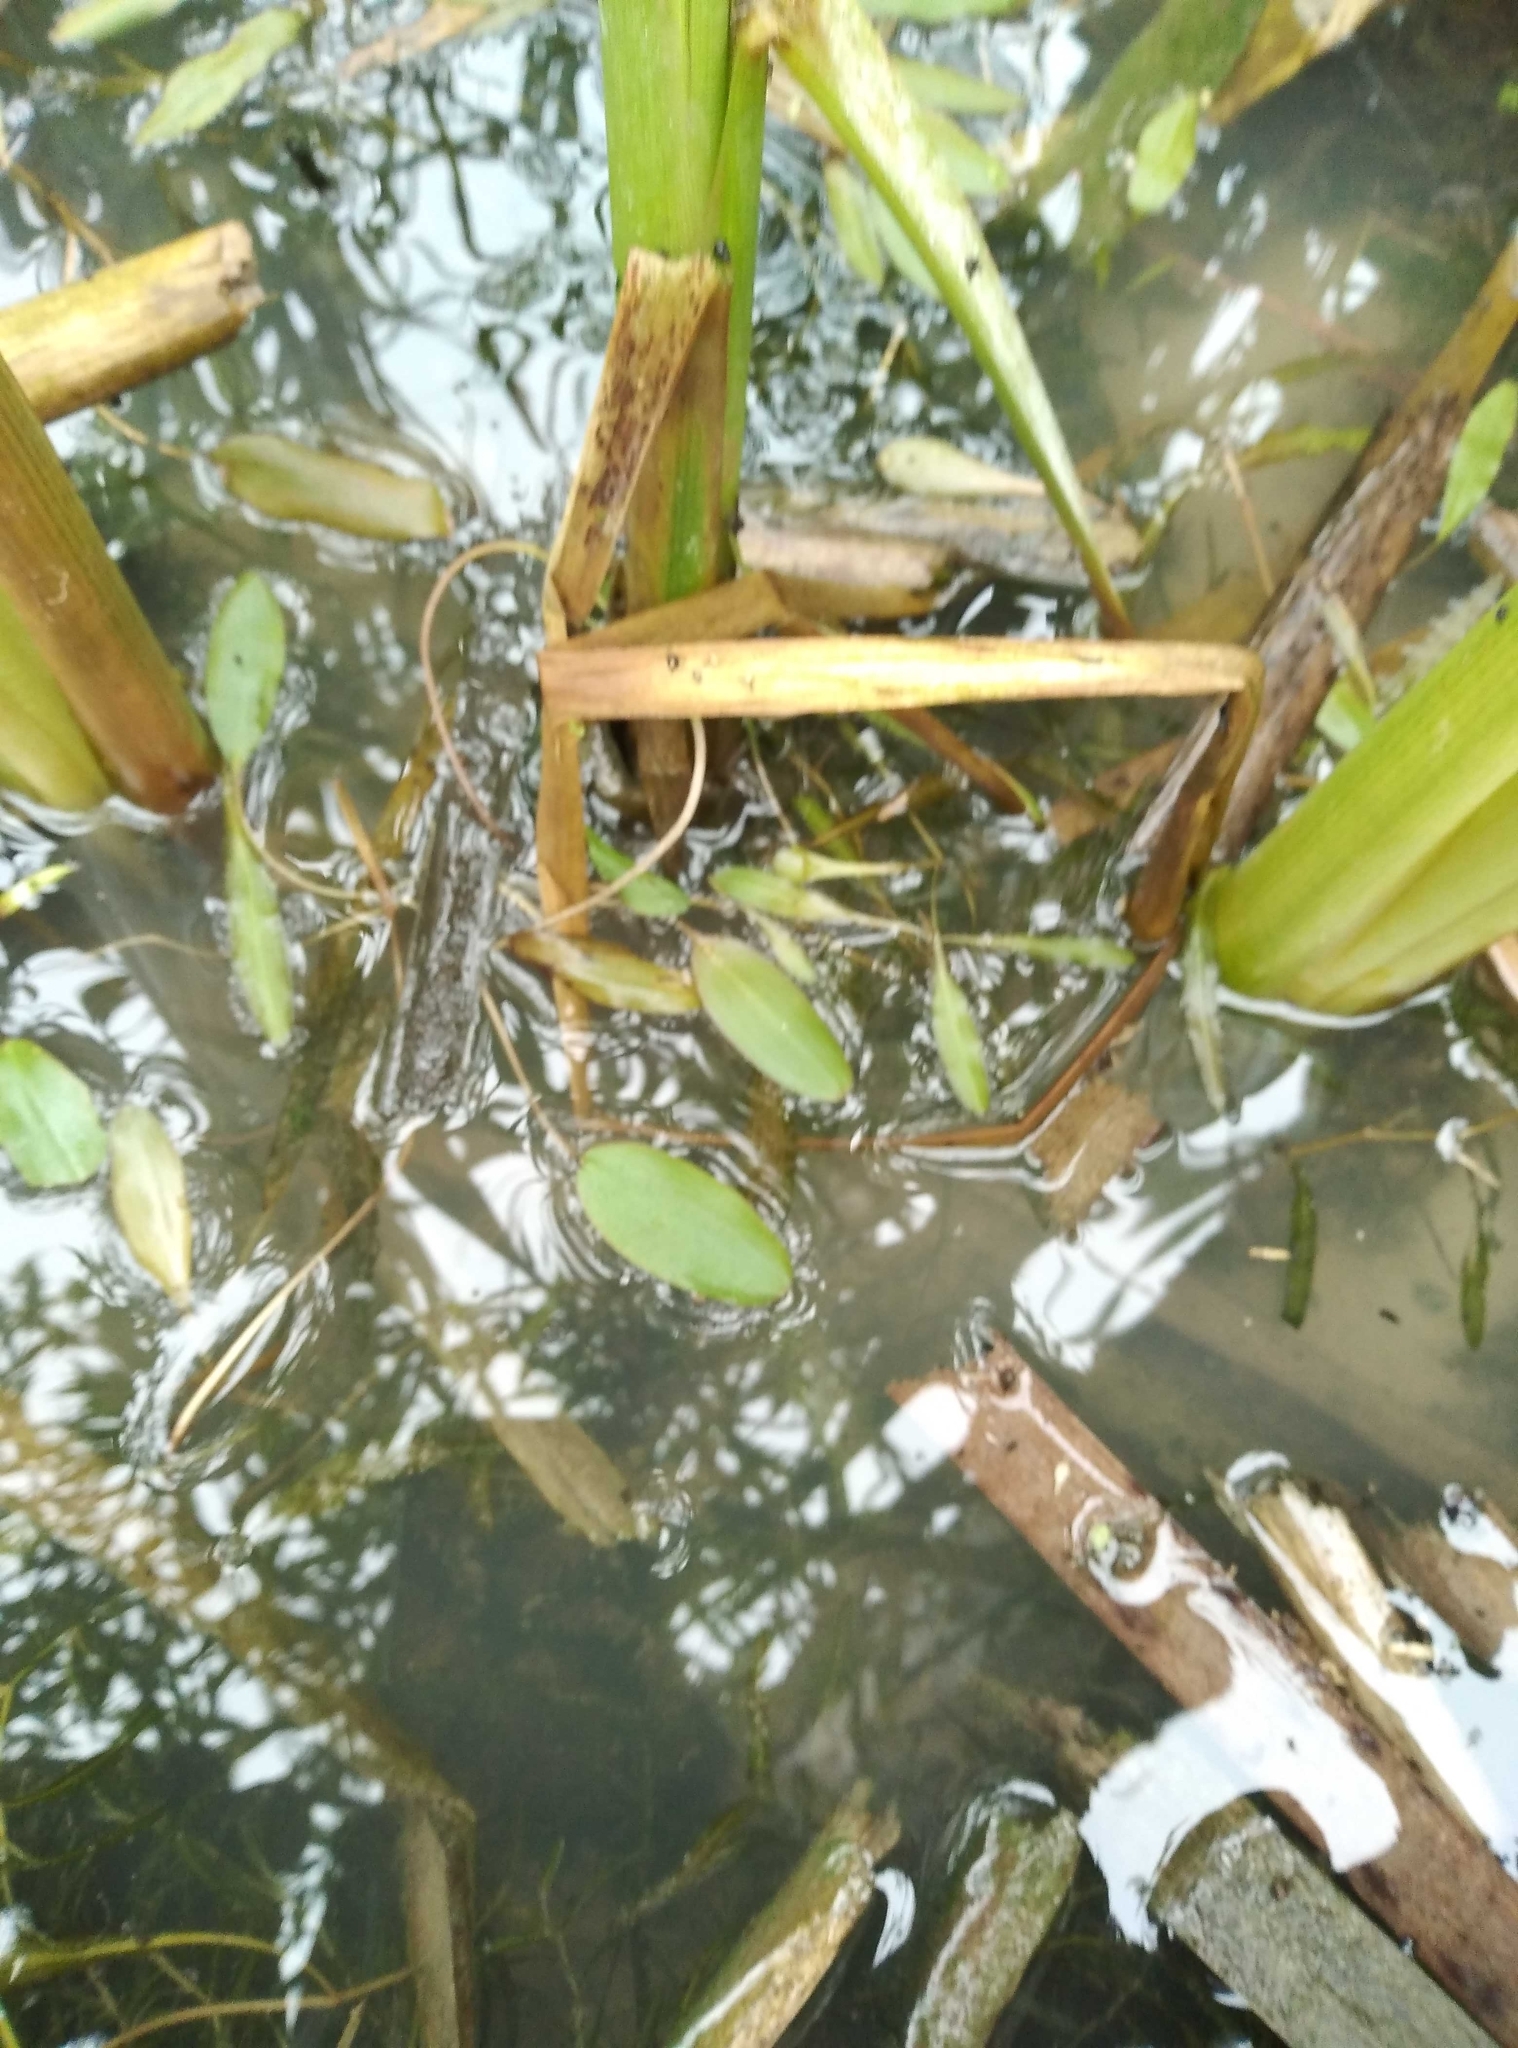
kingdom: Plantae
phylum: Tracheophyta
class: Liliopsida
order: Alismatales
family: Potamogetonaceae
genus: Potamogeton
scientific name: Potamogeton cheesemanii
